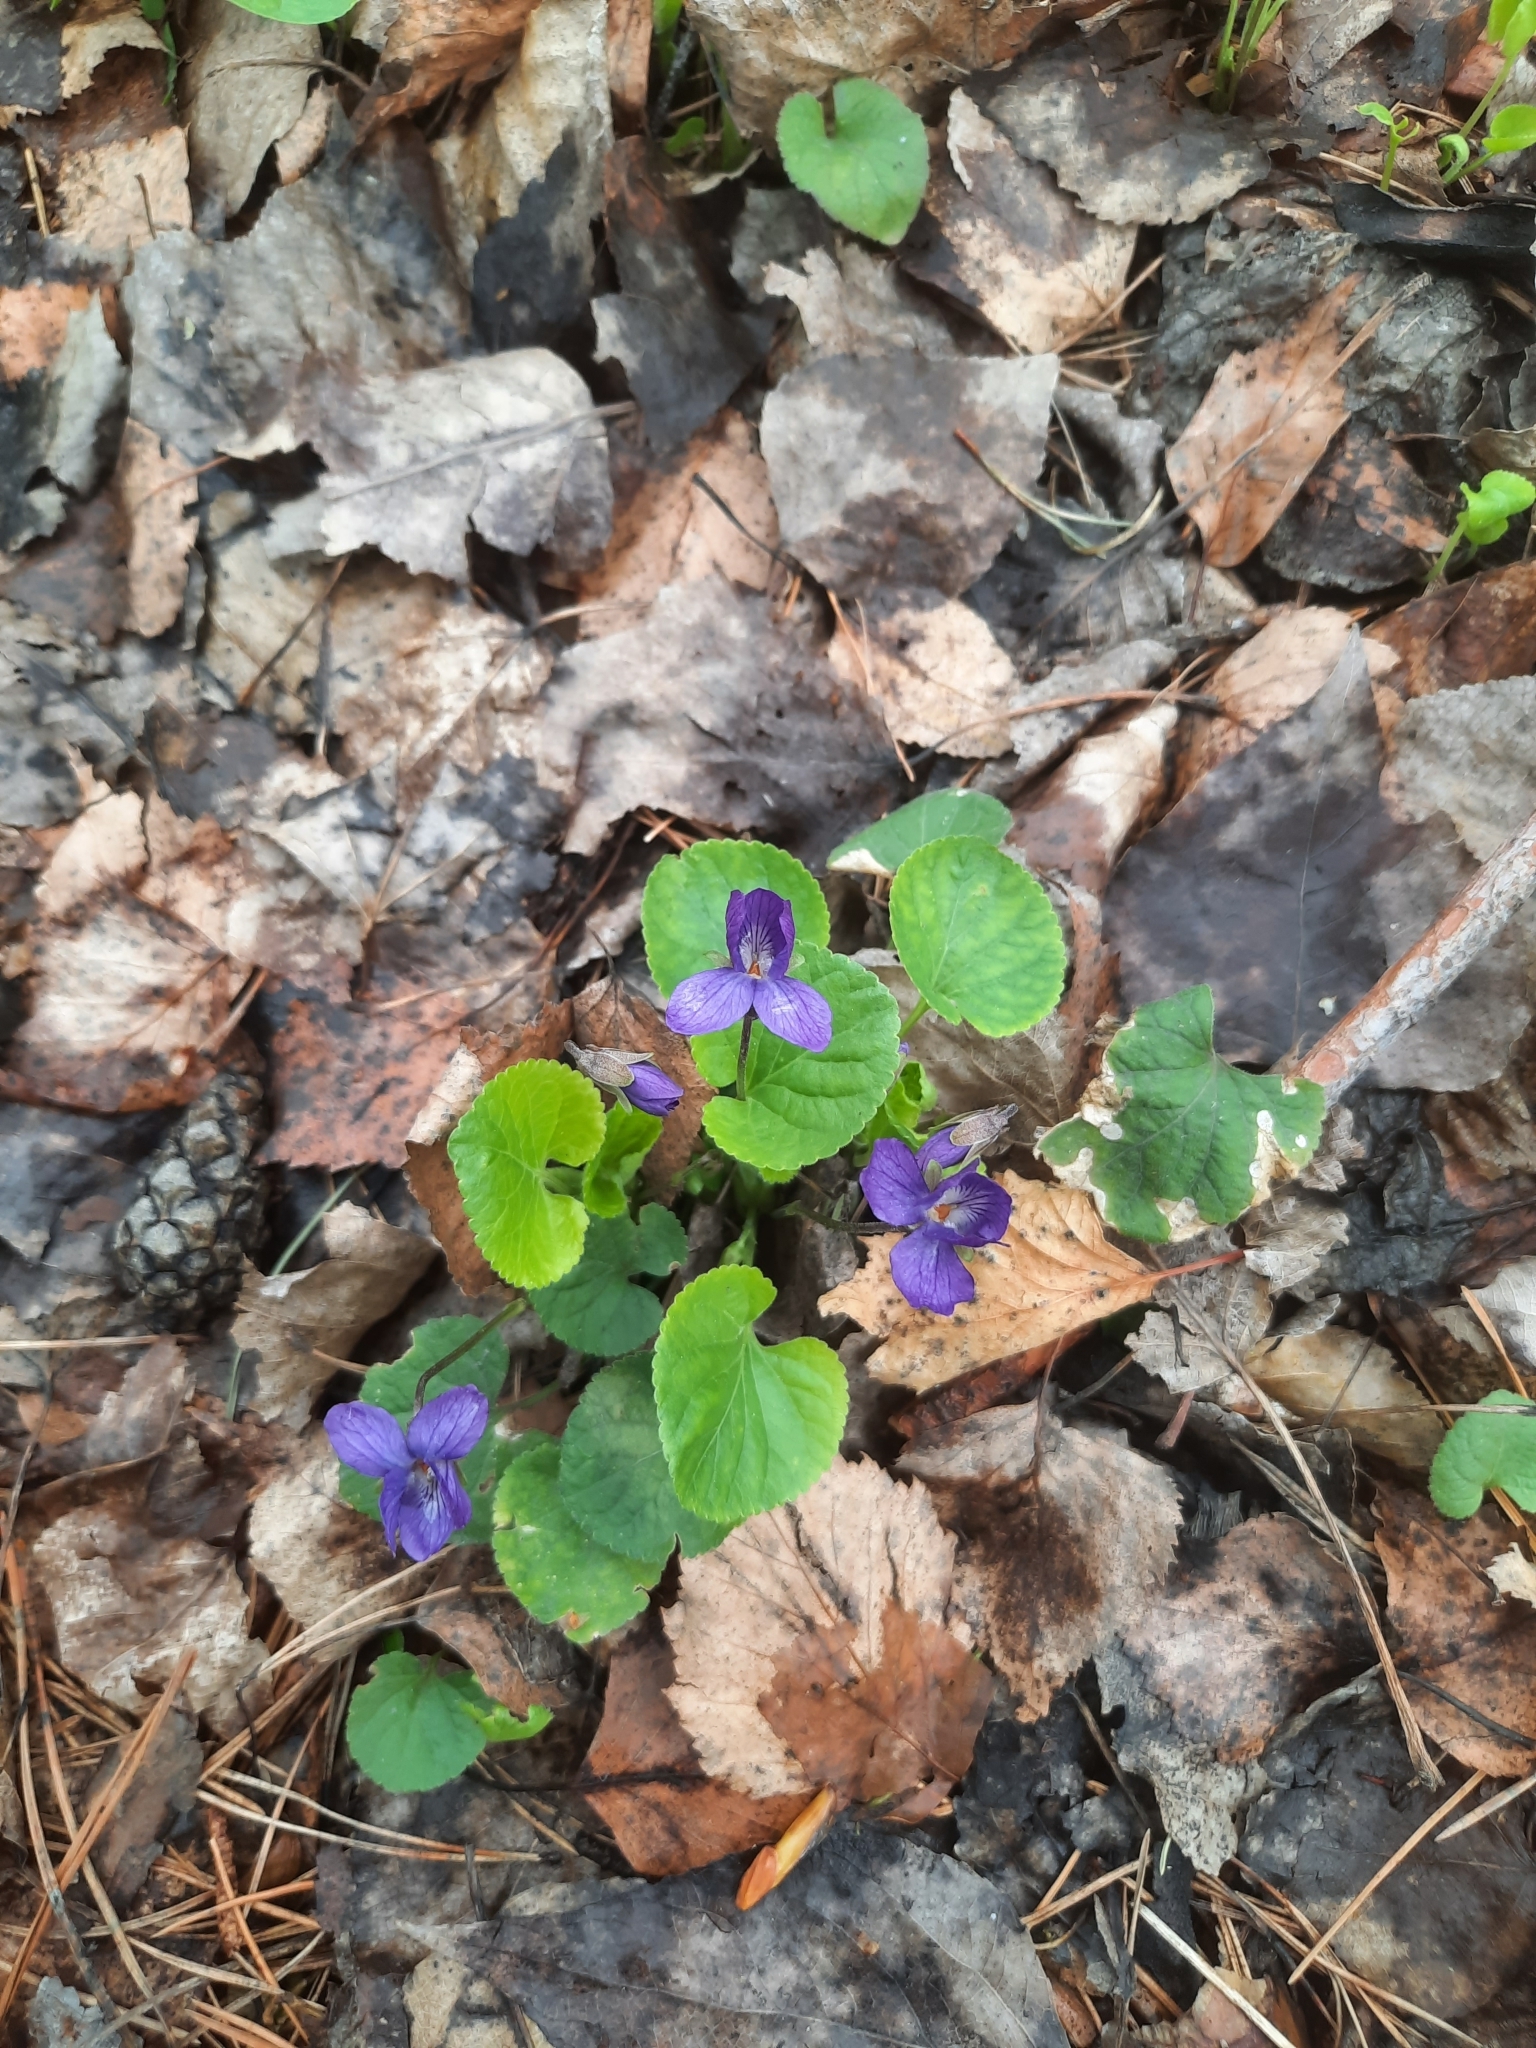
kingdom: Plantae
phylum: Tracheophyta
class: Magnoliopsida
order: Malpighiales
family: Violaceae
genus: Viola
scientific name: Viola odorata
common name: Sweet violet
